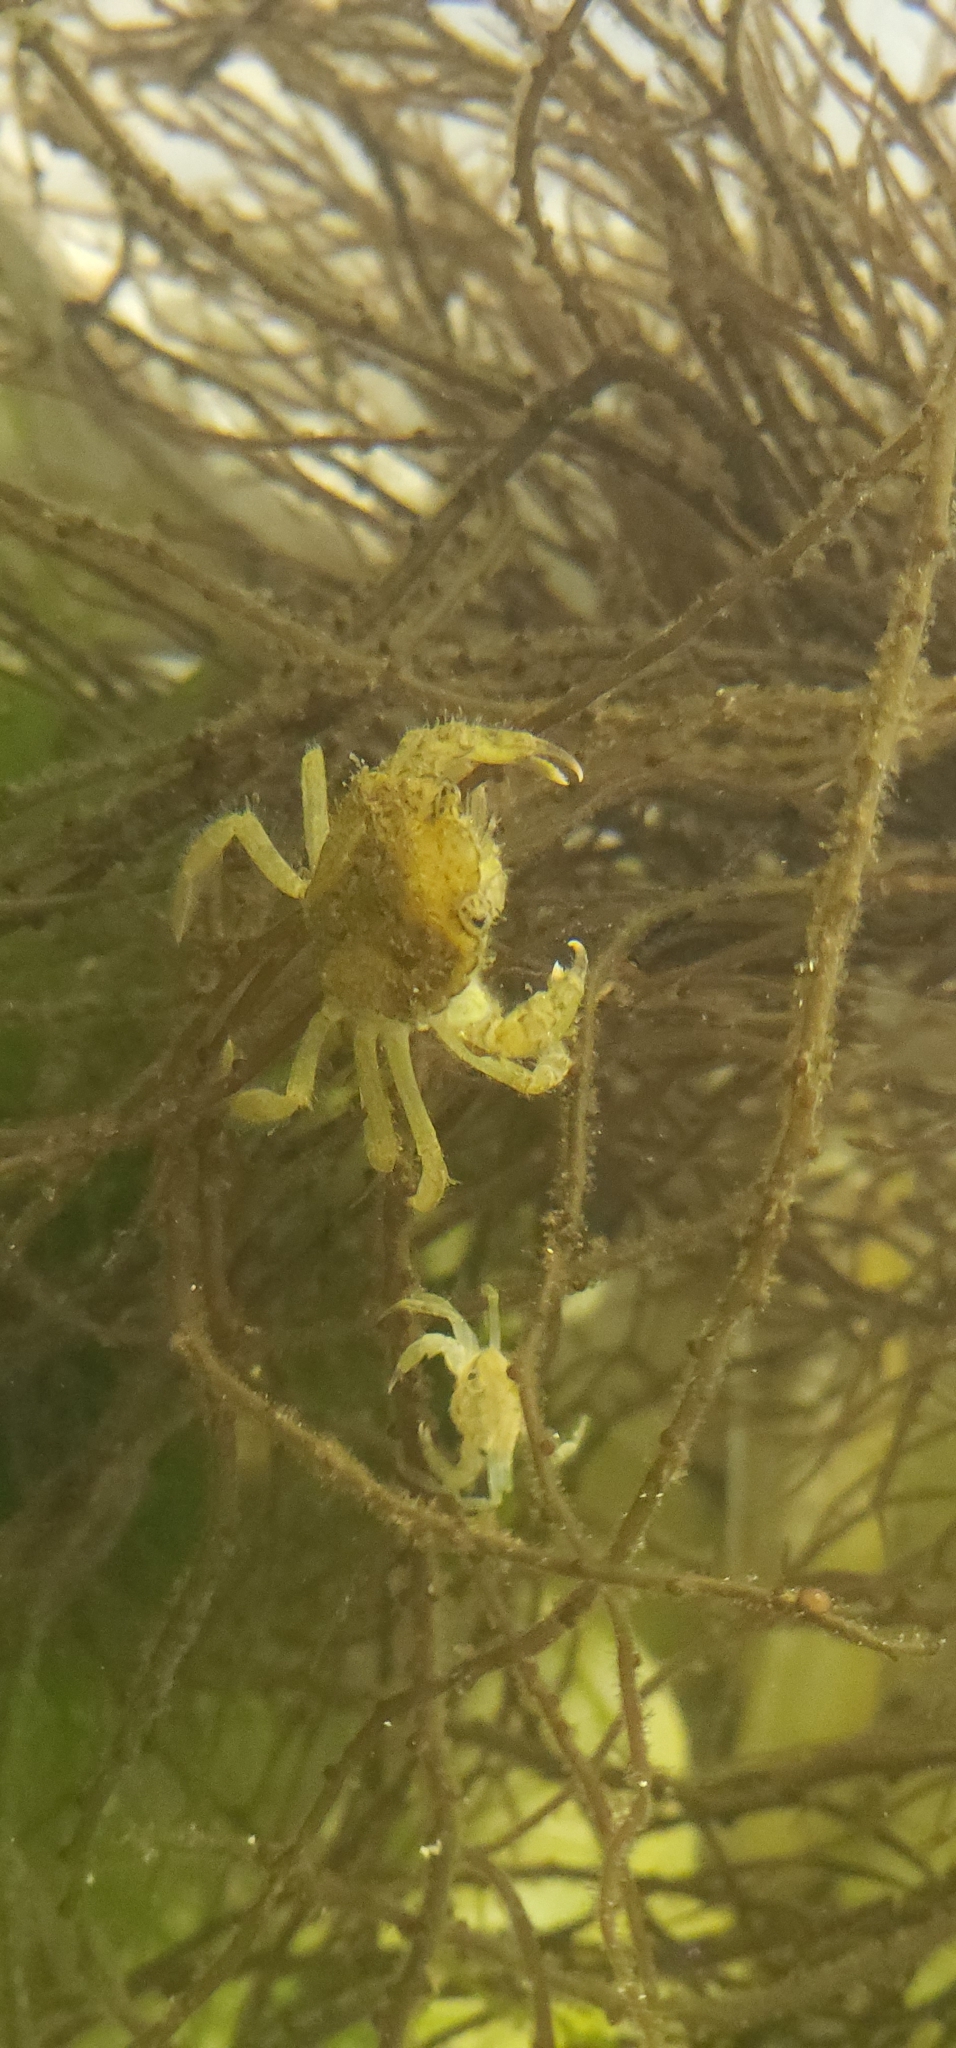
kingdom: Animalia
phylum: Arthropoda
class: Malacostraca
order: Decapoda
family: Carcinidae
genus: Carcinus
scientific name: Carcinus maenas
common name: European green crab
